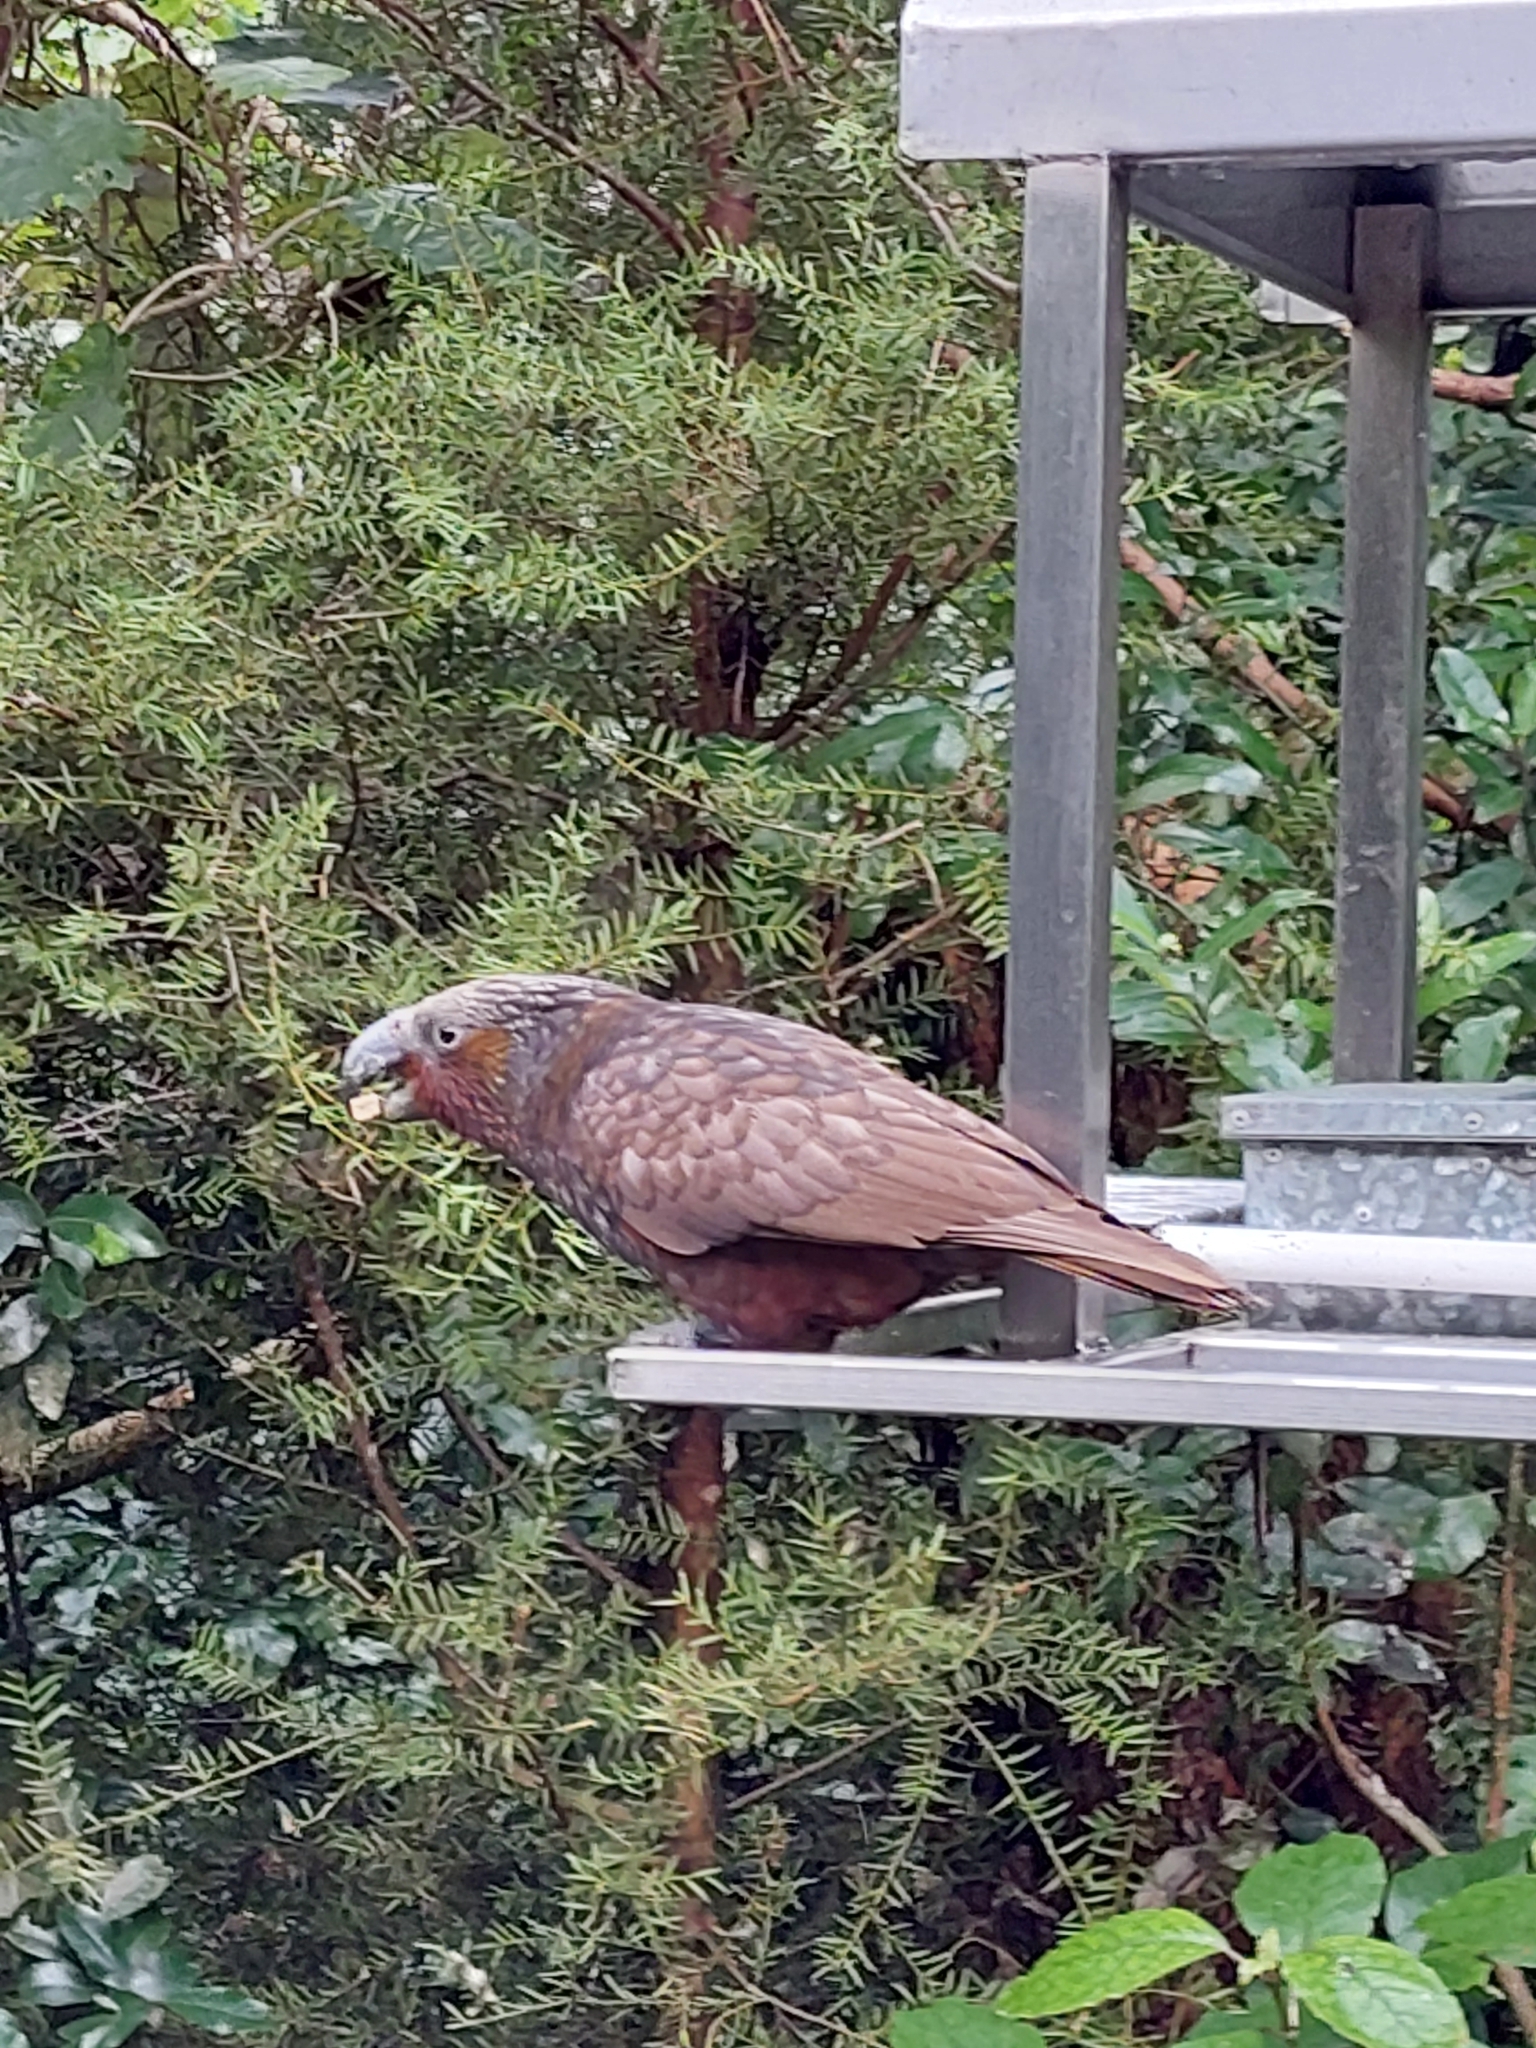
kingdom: Animalia
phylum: Chordata
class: Aves
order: Psittaciformes
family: Psittacidae
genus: Nestor
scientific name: Nestor meridionalis
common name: New zealand kaka
